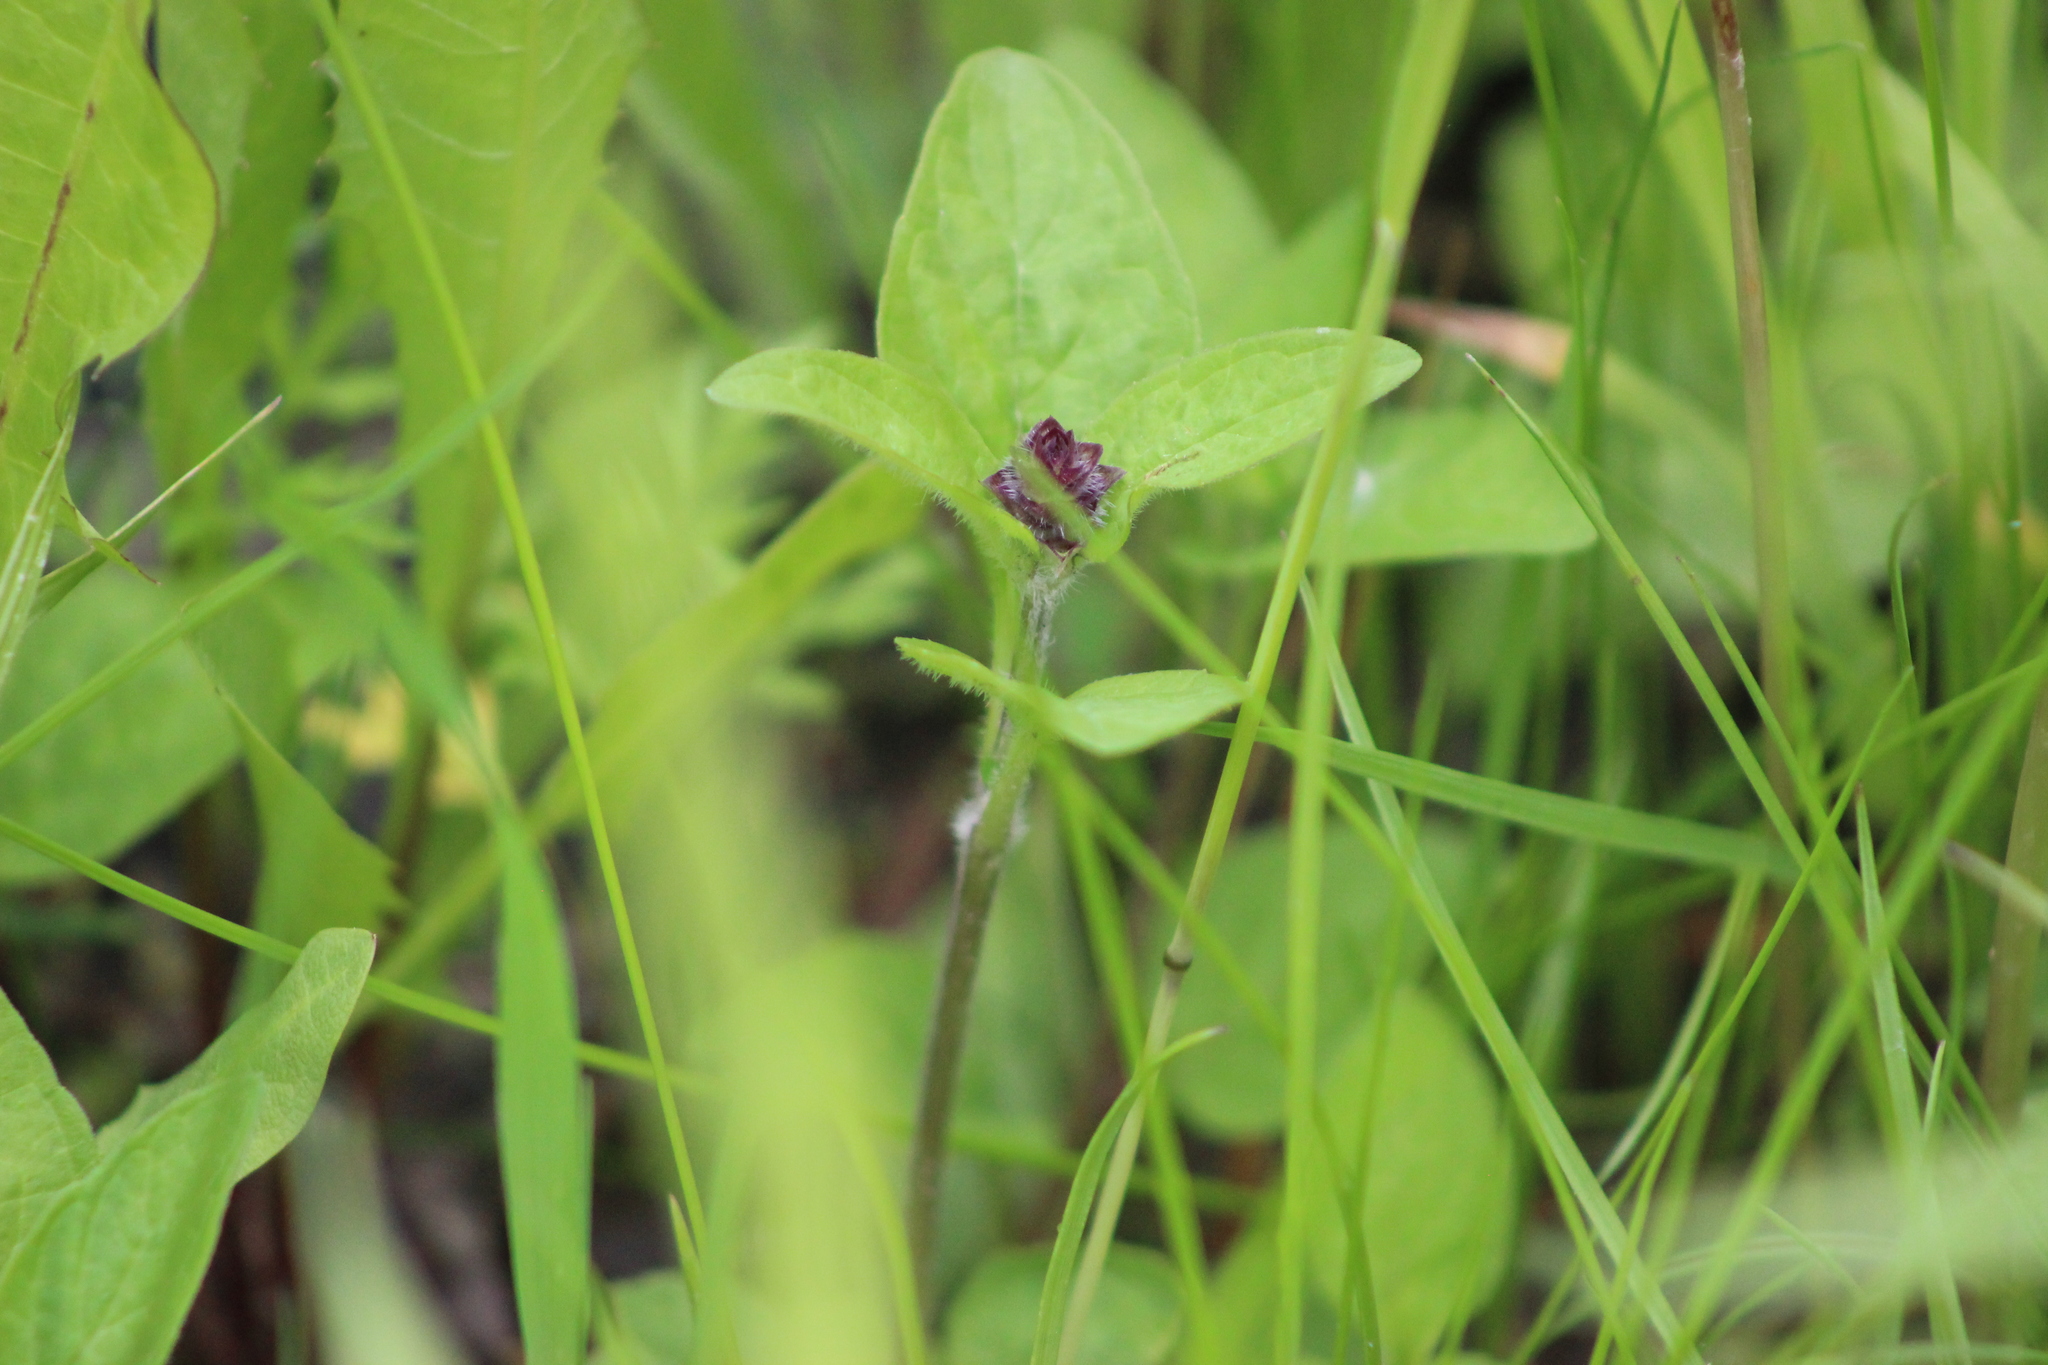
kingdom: Plantae
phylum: Tracheophyta
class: Magnoliopsida
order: Lamiales
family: Lamiaceae
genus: Prunella
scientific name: Prunella vulgaris
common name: Heal-all
